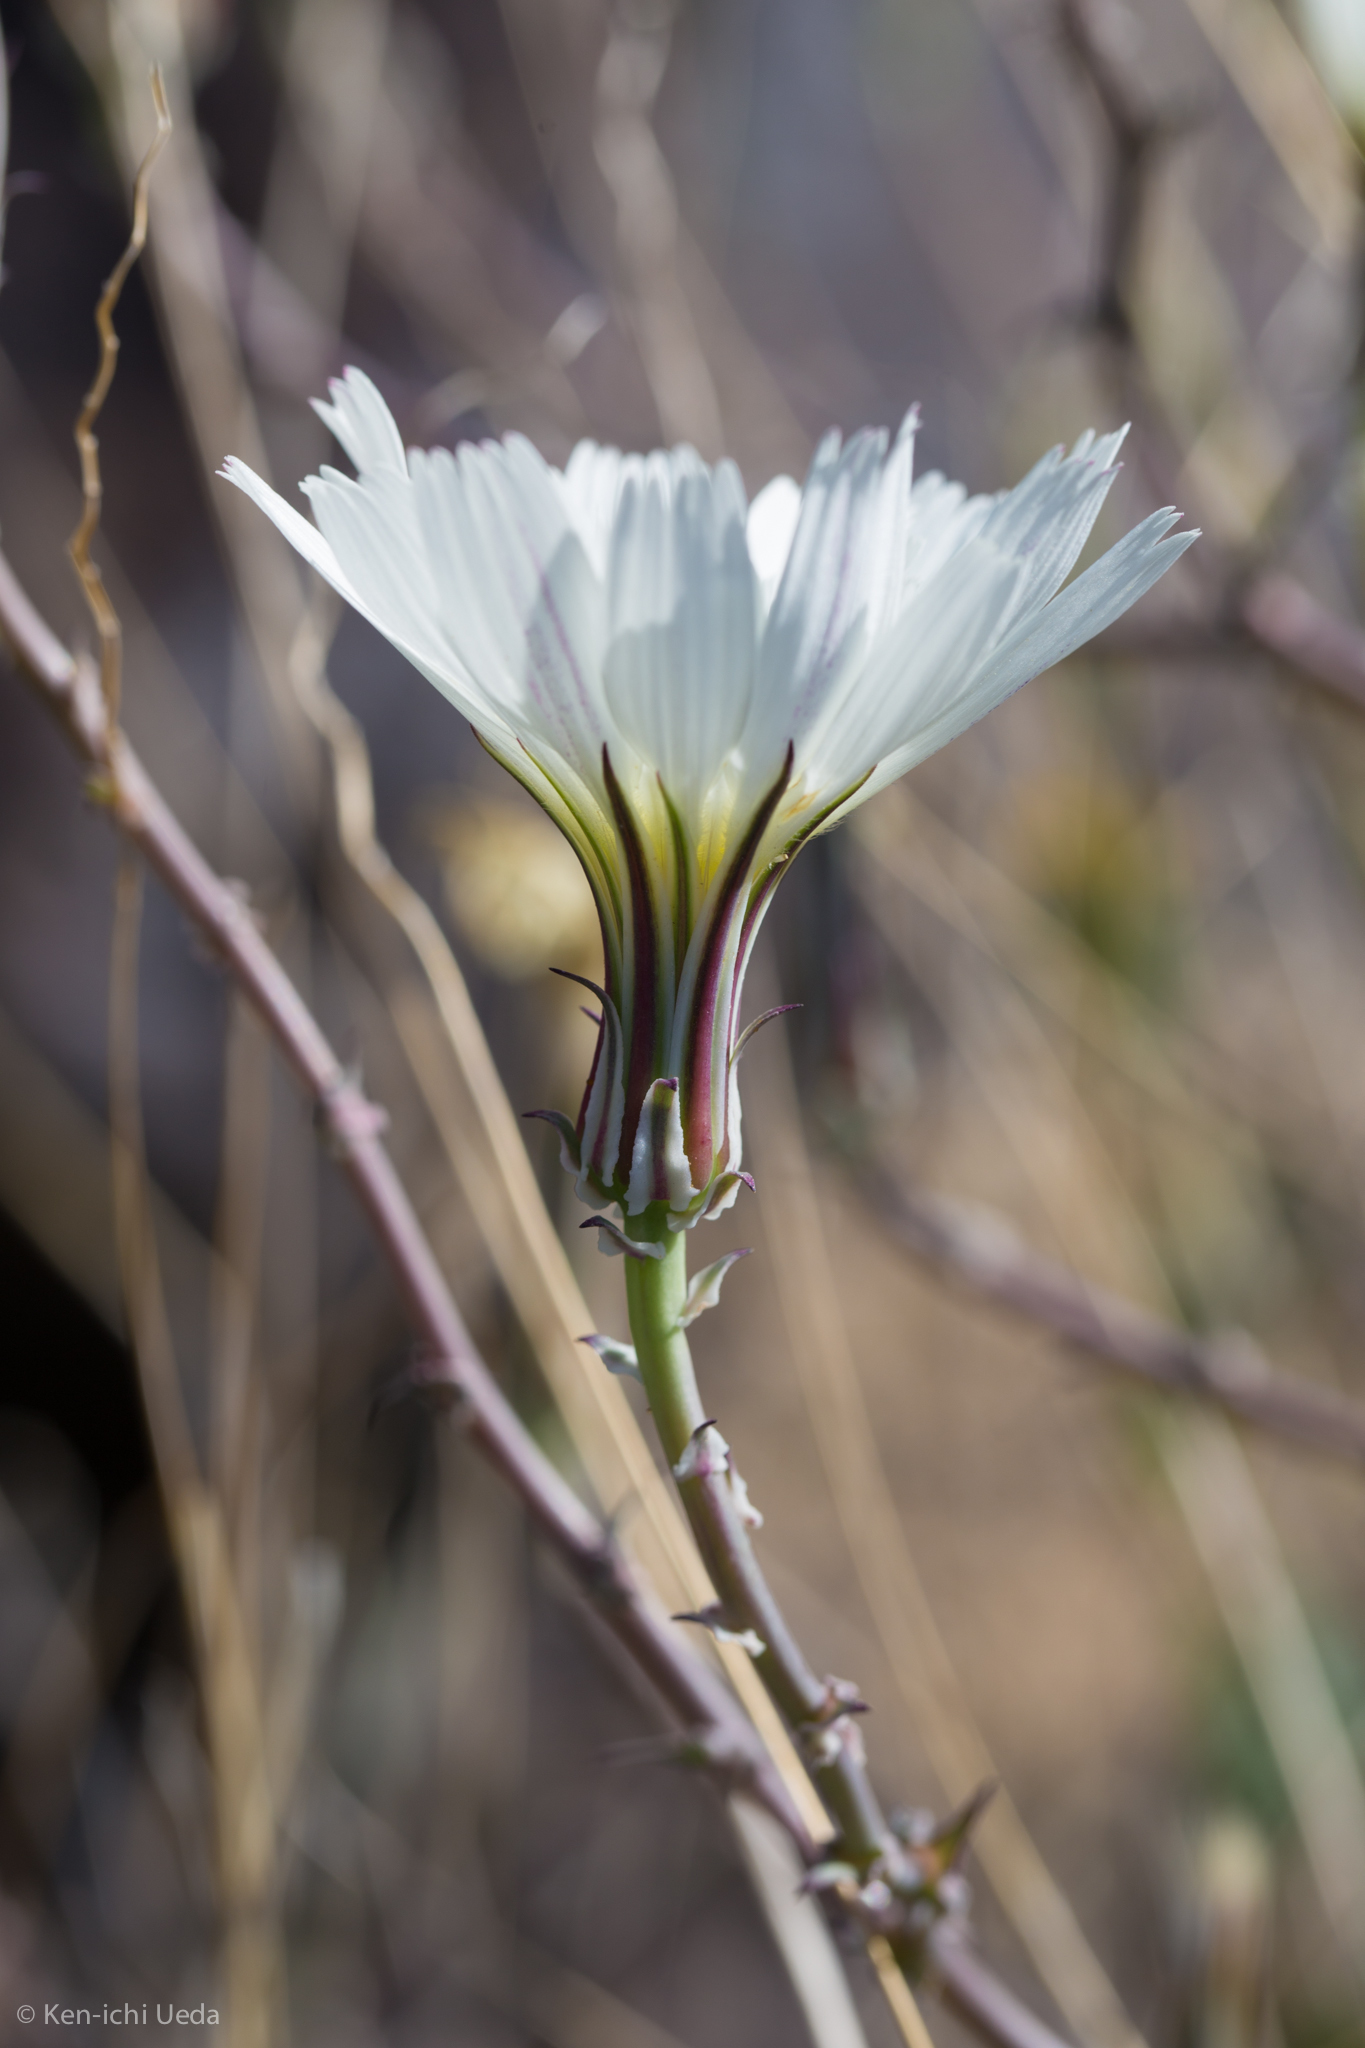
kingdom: Plantae
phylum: Tracheophyta
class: Magnoliopsida
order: Asterales
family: Asteraceae
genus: Rafinesquia
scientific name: Rafinesquia neomexicana
